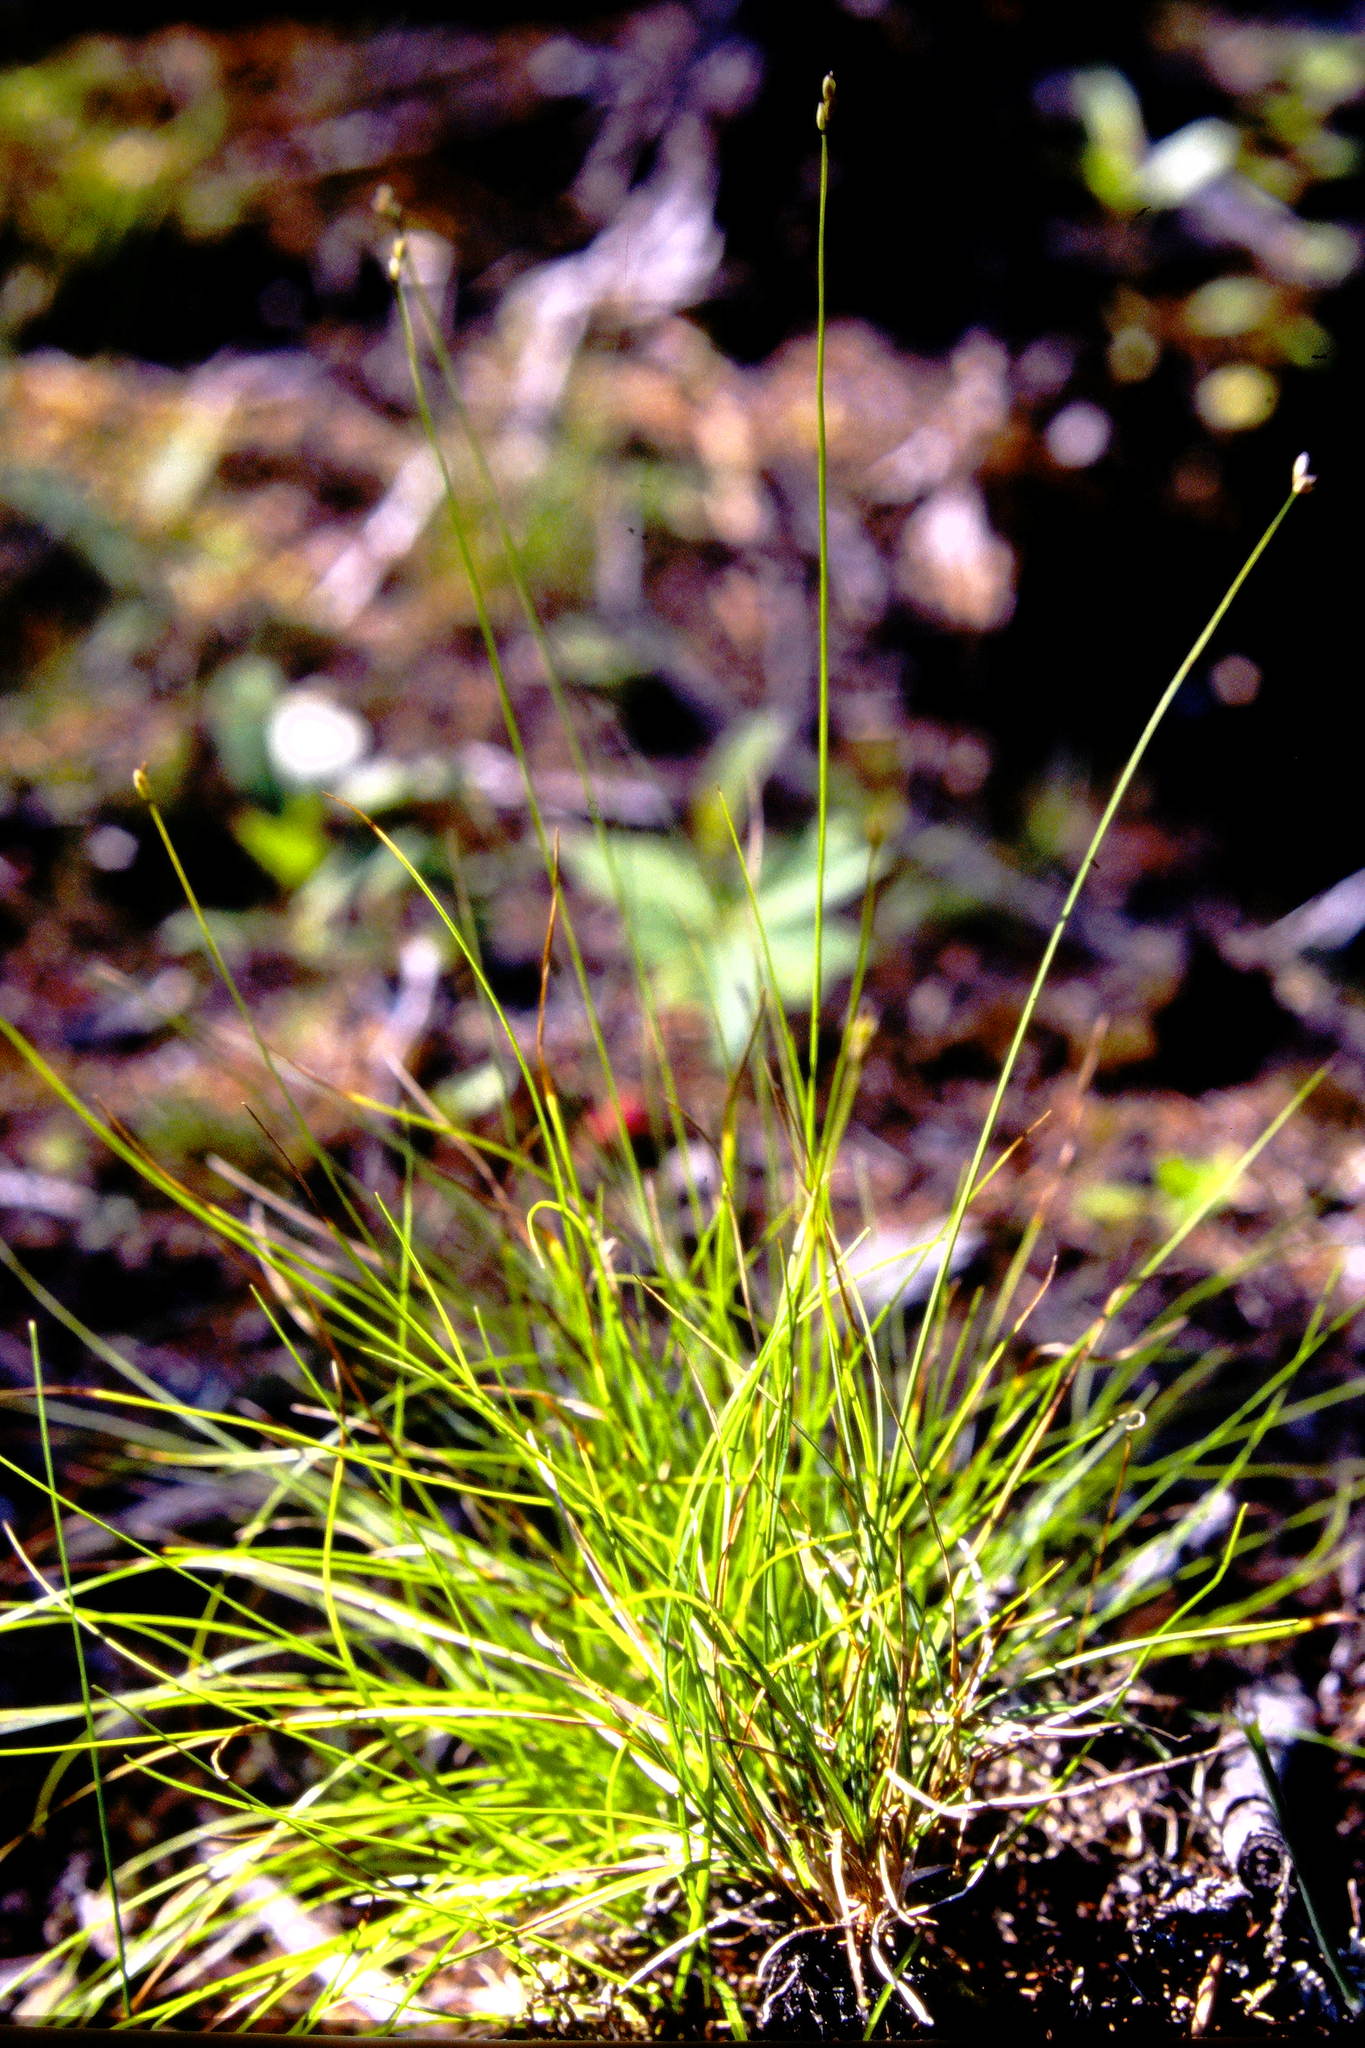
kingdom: Plantae
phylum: Tracheophyta
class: Liliopsida
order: Poales
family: Cyperaceae
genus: Carex
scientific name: Carex disperma
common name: Short-leaved sedge
